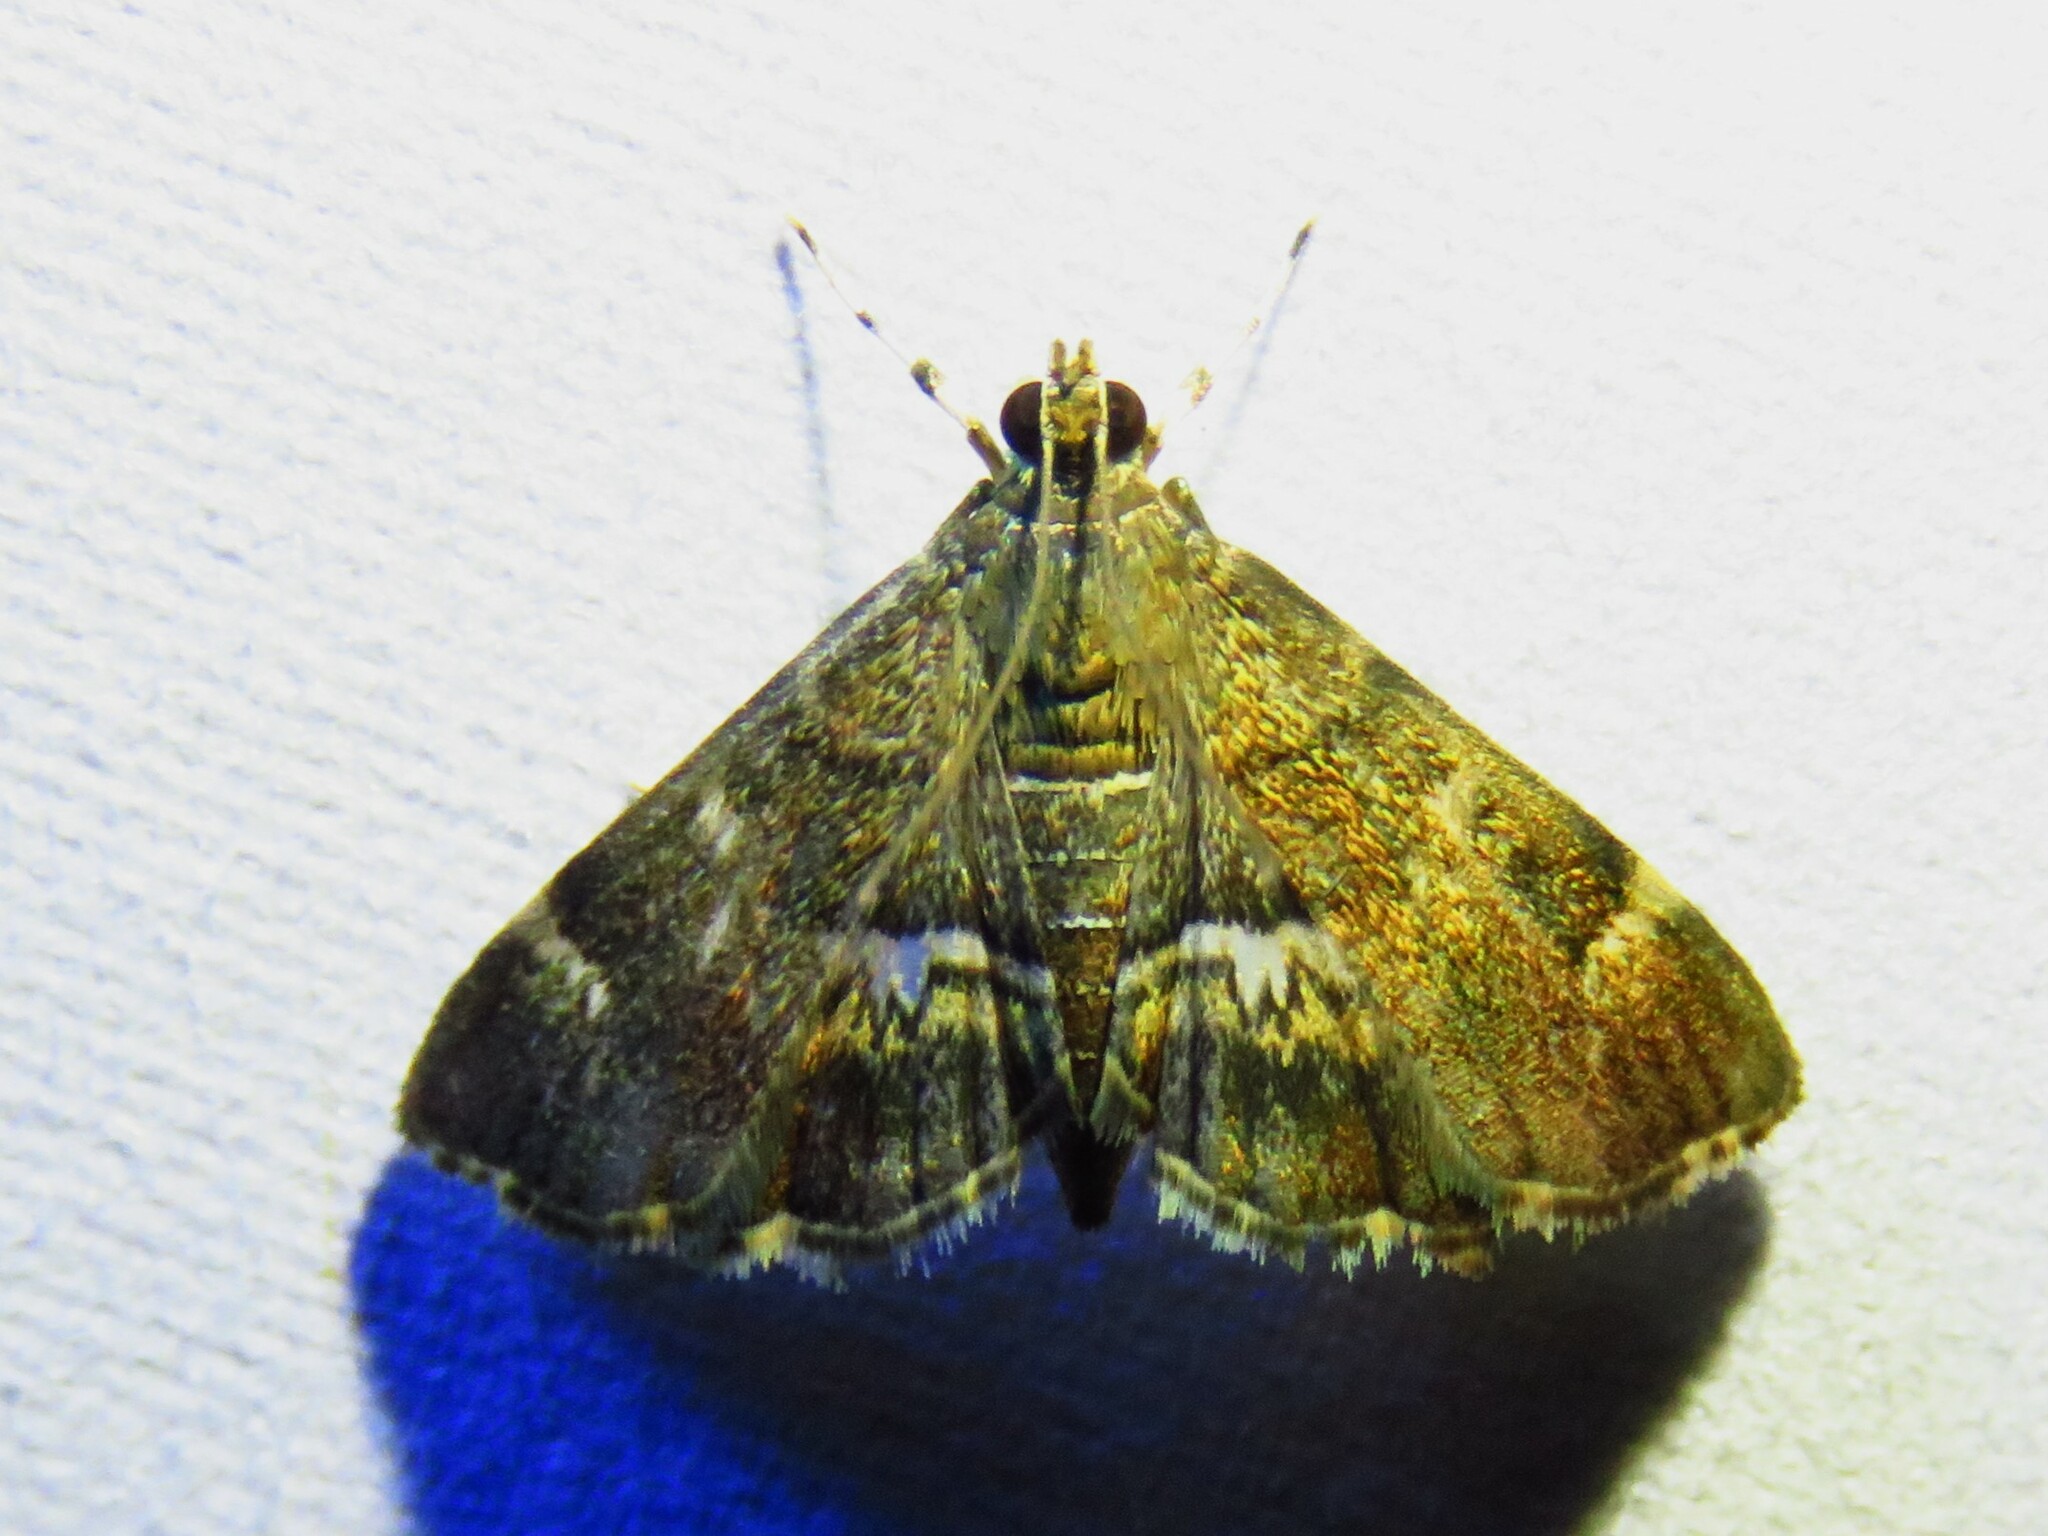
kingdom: Animalia
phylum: Arthropoda
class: Insecta
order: Lepidoptera
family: Crambidae
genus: Hymenia
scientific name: Hymenia perspectalis
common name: Spotted beet webworm
